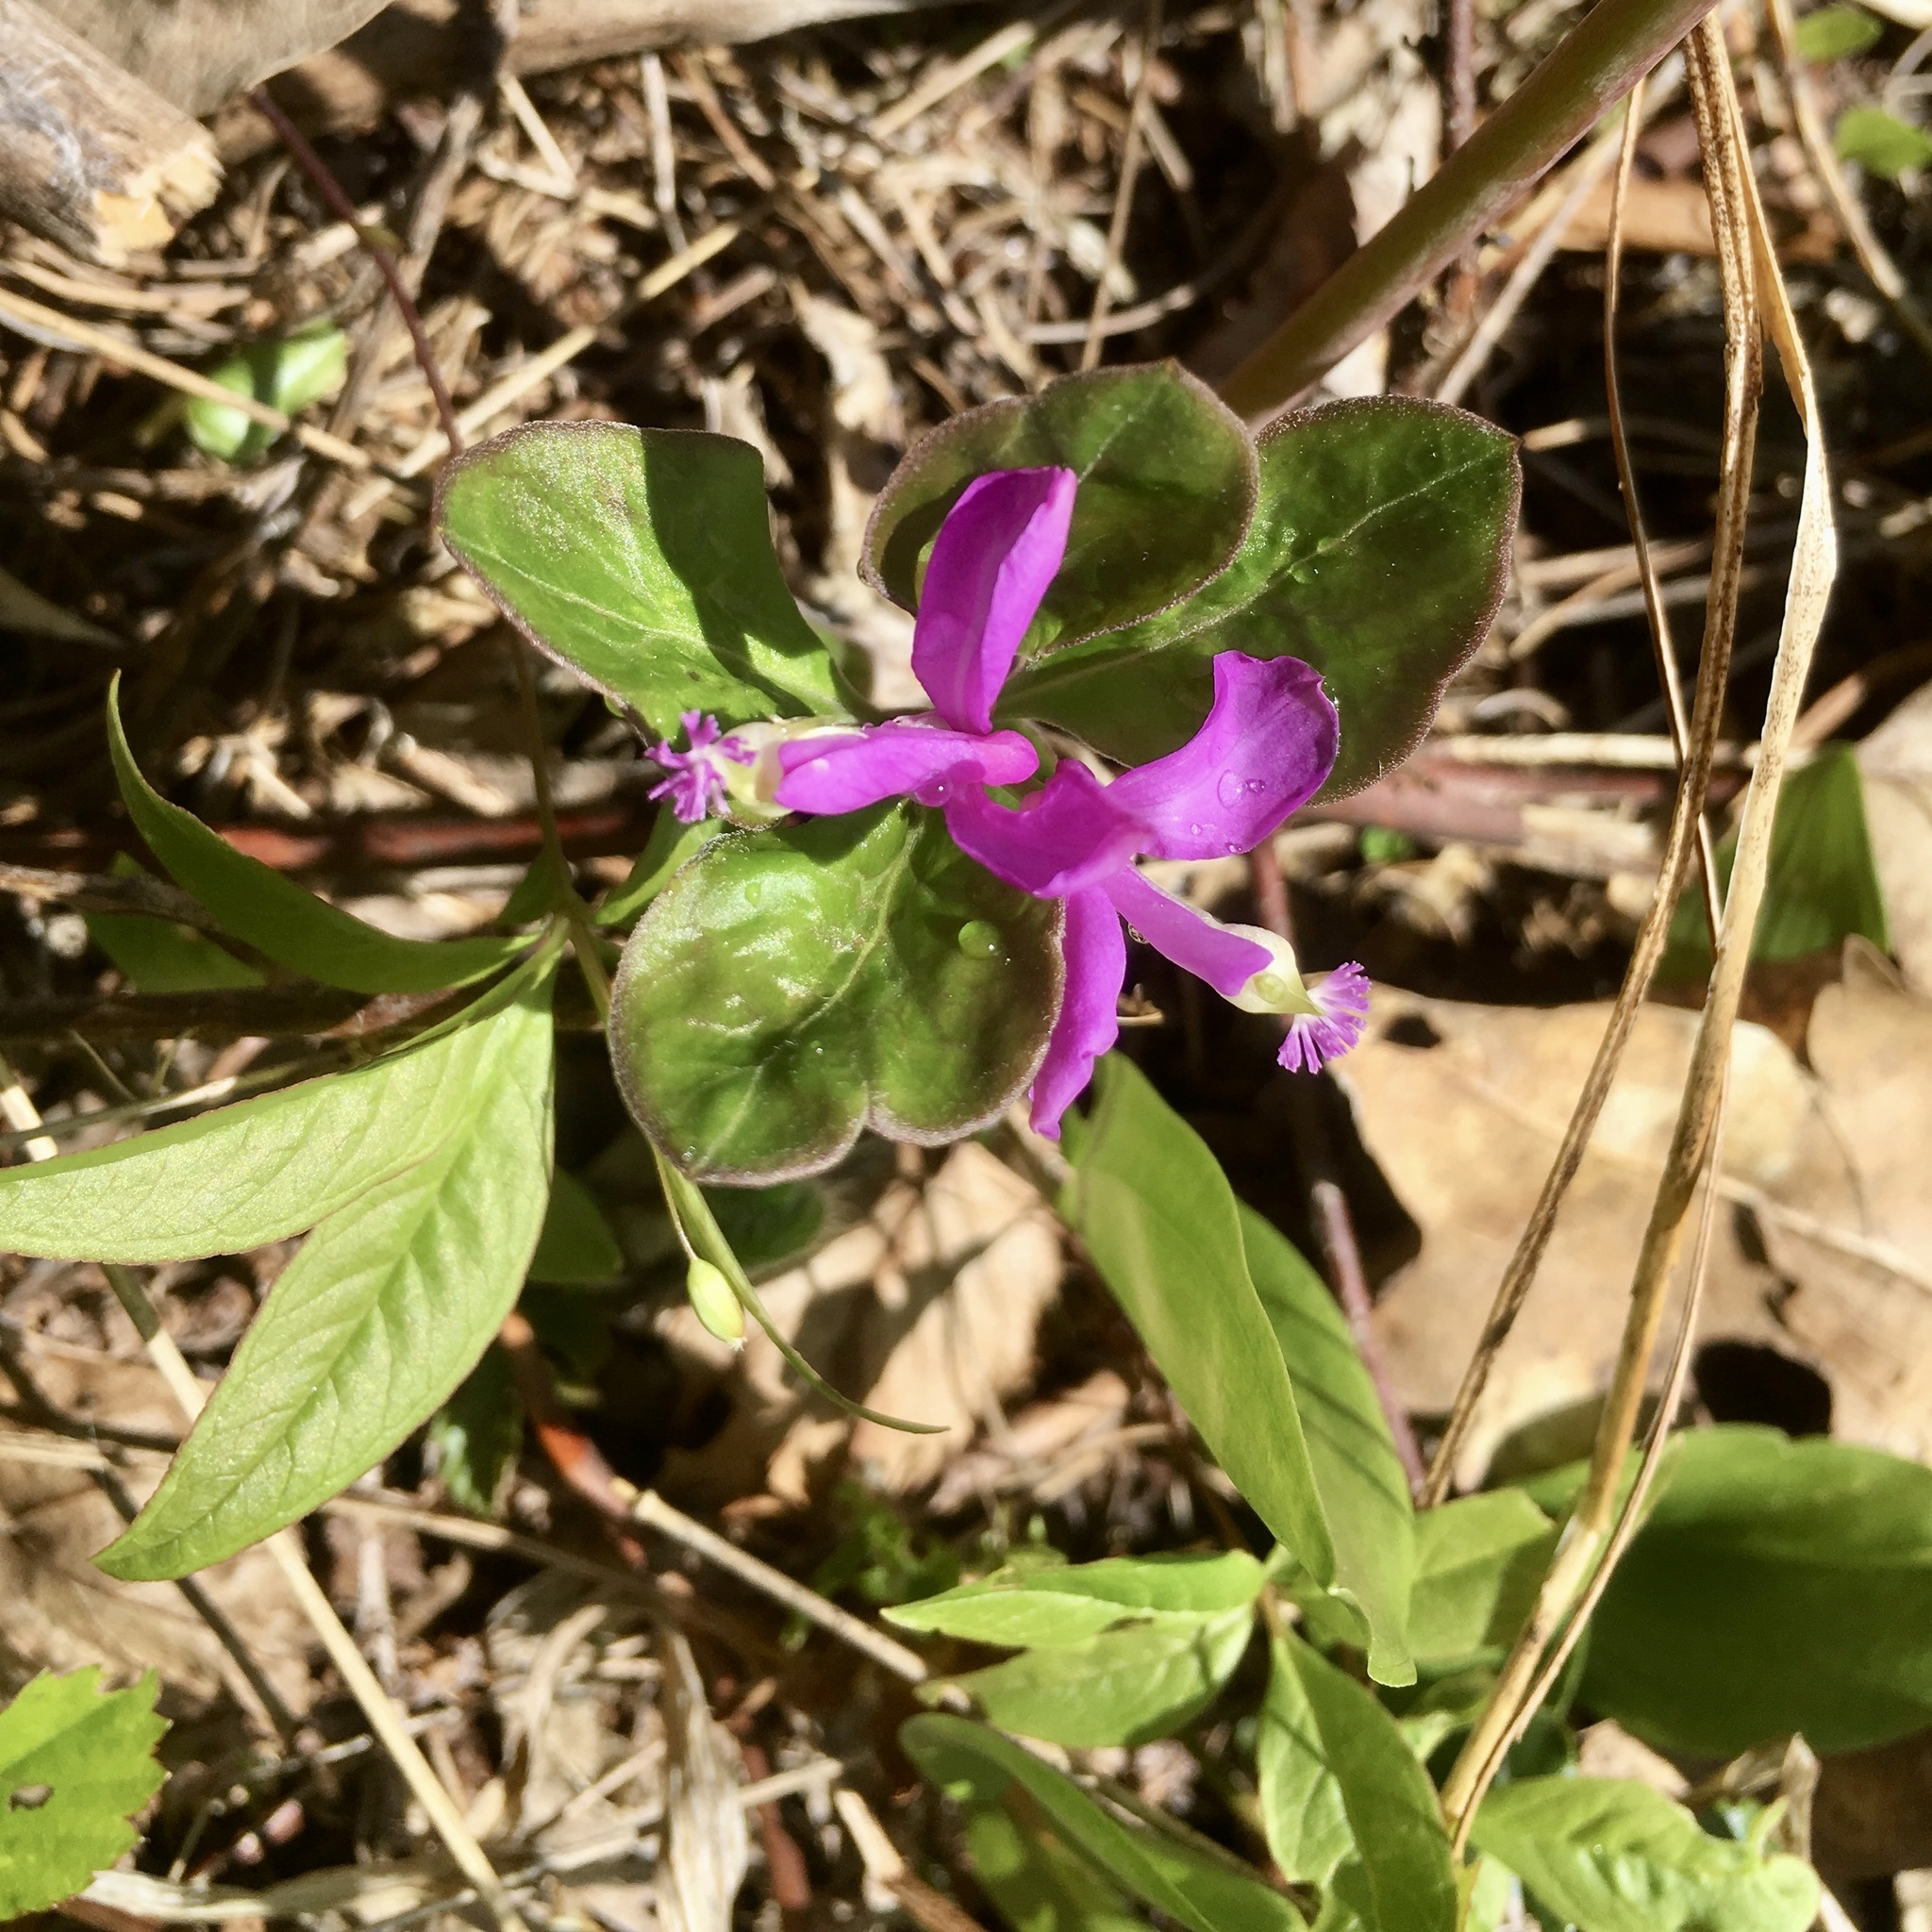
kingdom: Plantae
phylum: Tracheophyta
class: Magnoliopsida
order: Fabales
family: Polygalaceae
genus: Polygaloides
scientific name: Polygaloides paucifolia
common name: Bird-on-the-wing
